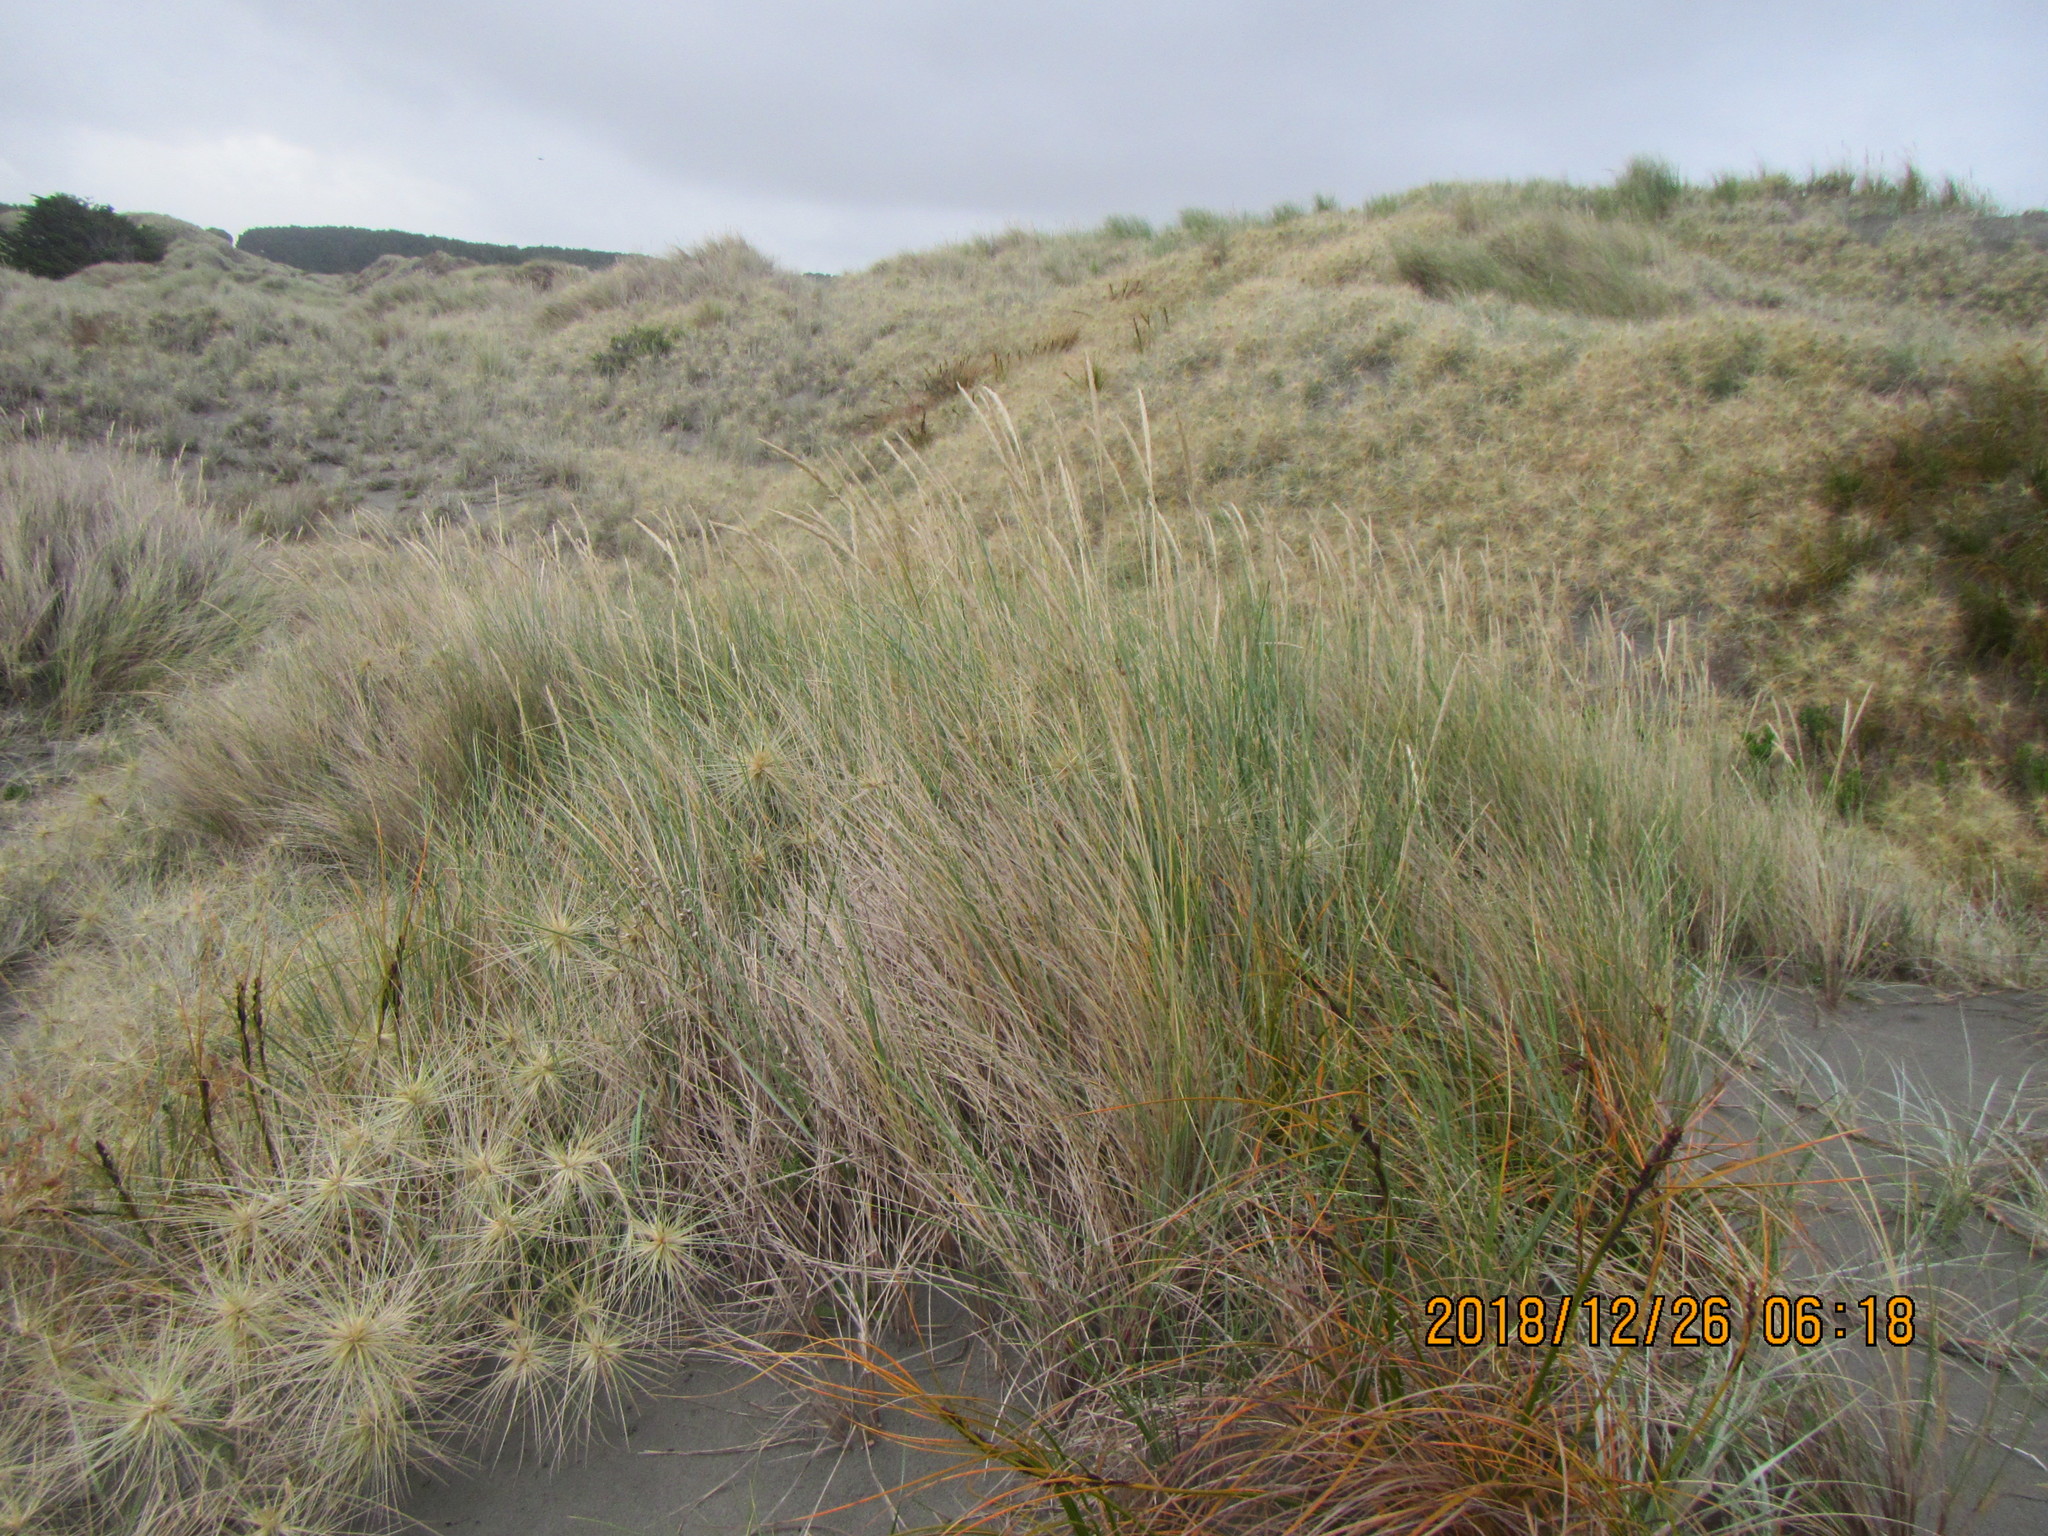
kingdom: Plantae
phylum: Tracheophyta
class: Liliopsida
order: Poales
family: Poaceae
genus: Calamagrostis
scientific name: Calamagrostis arenaria
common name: European beachgrass
